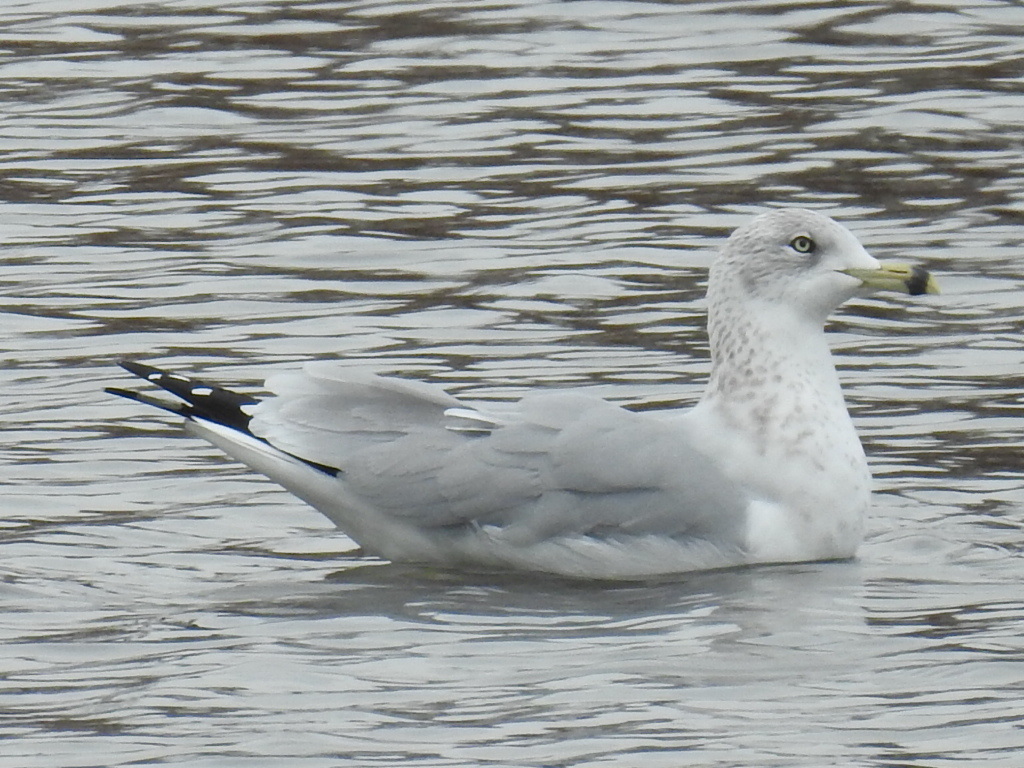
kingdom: Animalia
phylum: Chordata
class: Aves
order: Charadriiformes
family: Laridae
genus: Larus
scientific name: Larus delawarensis
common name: Ring-billed gull
